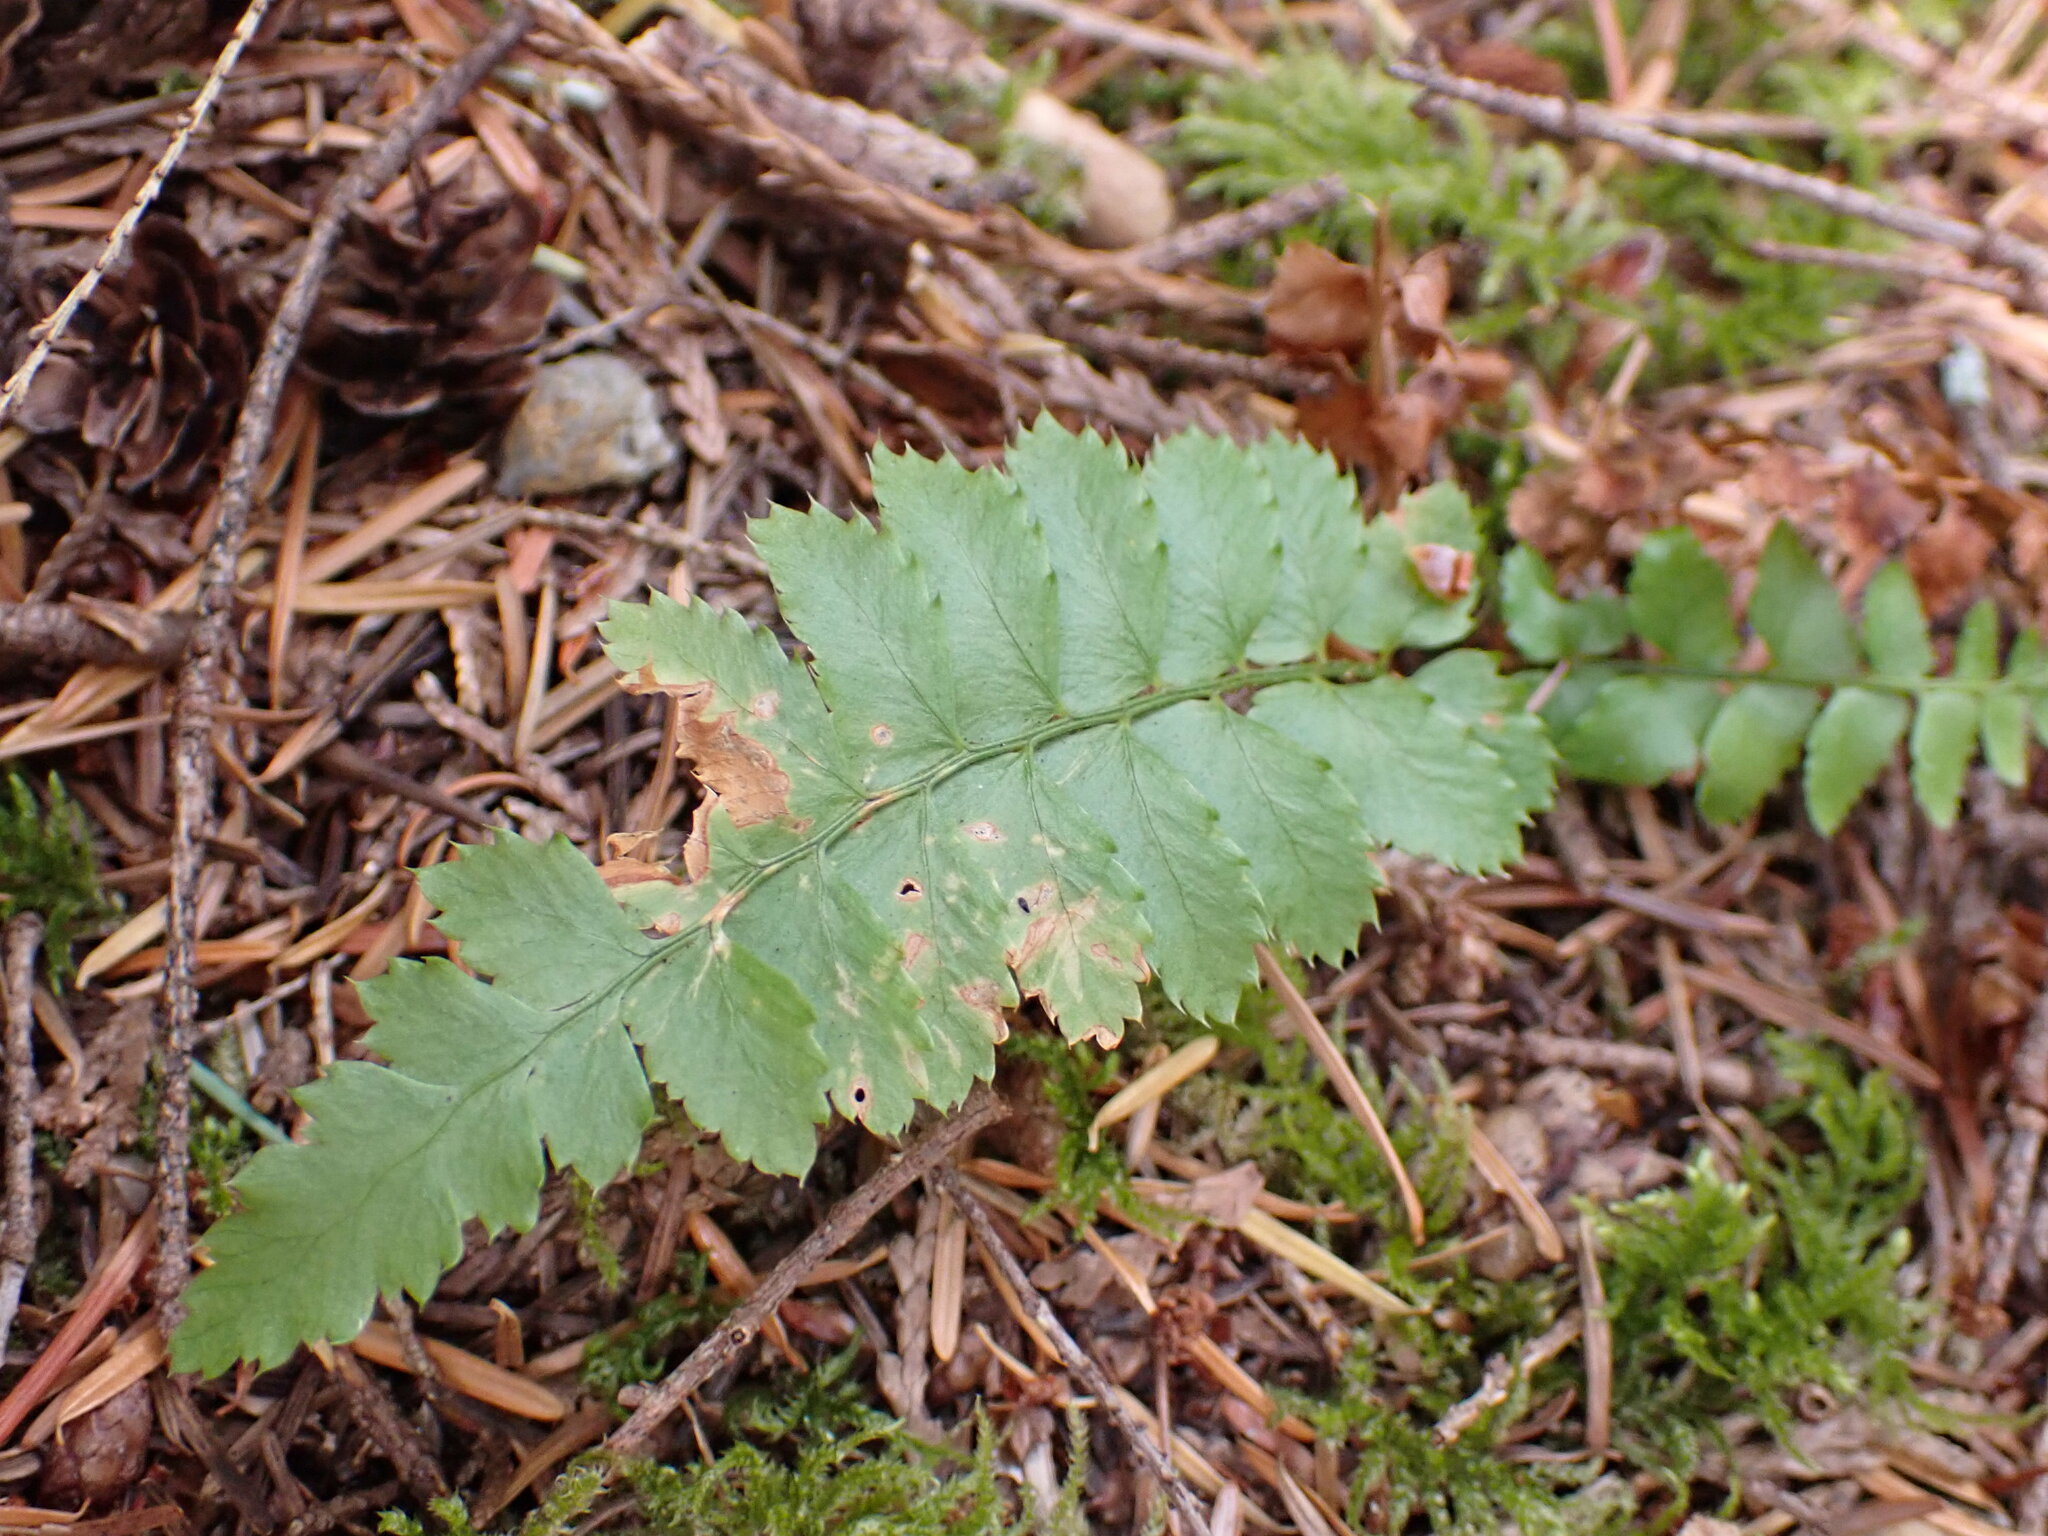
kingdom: Plantae
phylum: Tracheophyta
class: Polypodiopsida
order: Polypodiales
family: Dryopteridaceae
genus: Polystichum
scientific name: Polystichum munitum
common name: Western sword-fern
